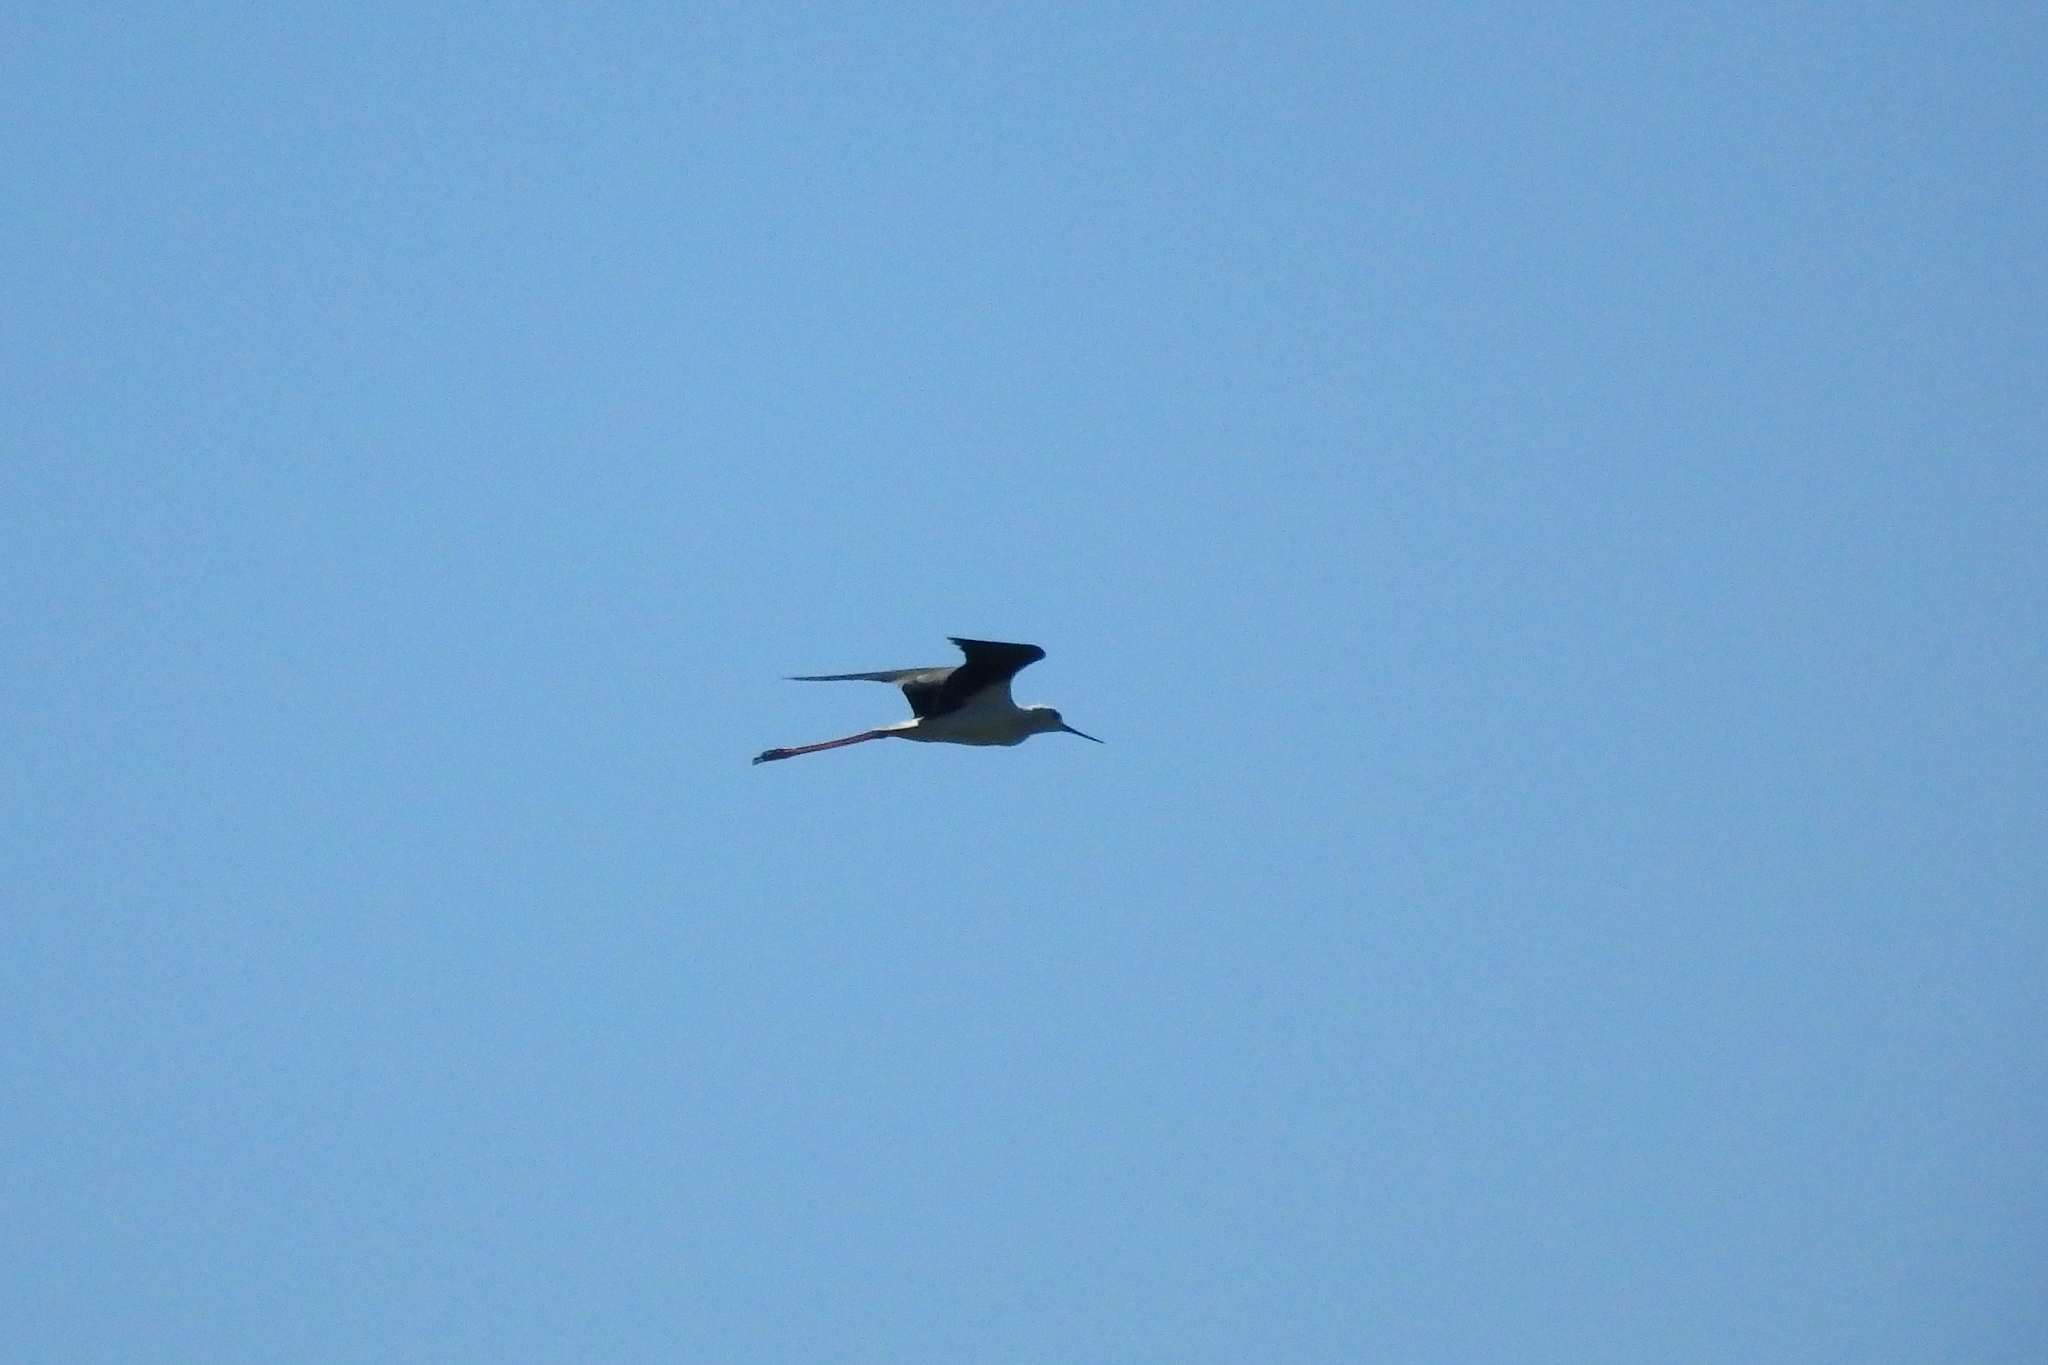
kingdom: Animalia
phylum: Chordata
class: Aves
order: Charadriiformes
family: Recurvirostridae
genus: Himantopus
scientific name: Himantopus himantopus
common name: Black-winged stilt
